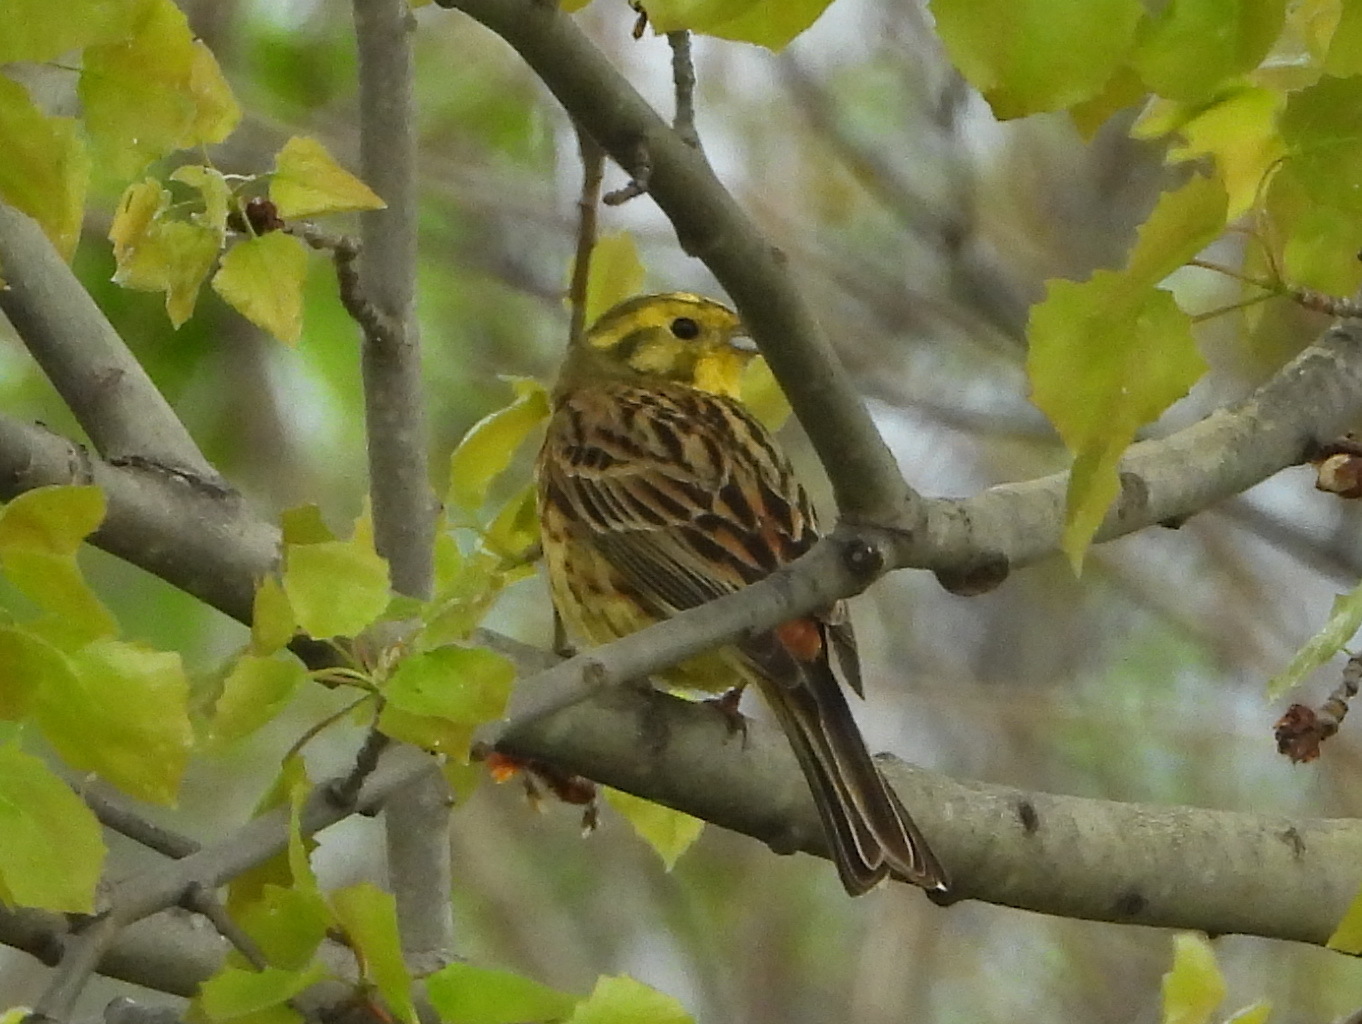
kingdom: Animalia
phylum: Chordata
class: Aves
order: Passeriformes
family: Emberizidae
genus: Emberiza
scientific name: Emberiza citrinella
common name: Yellowhammer
